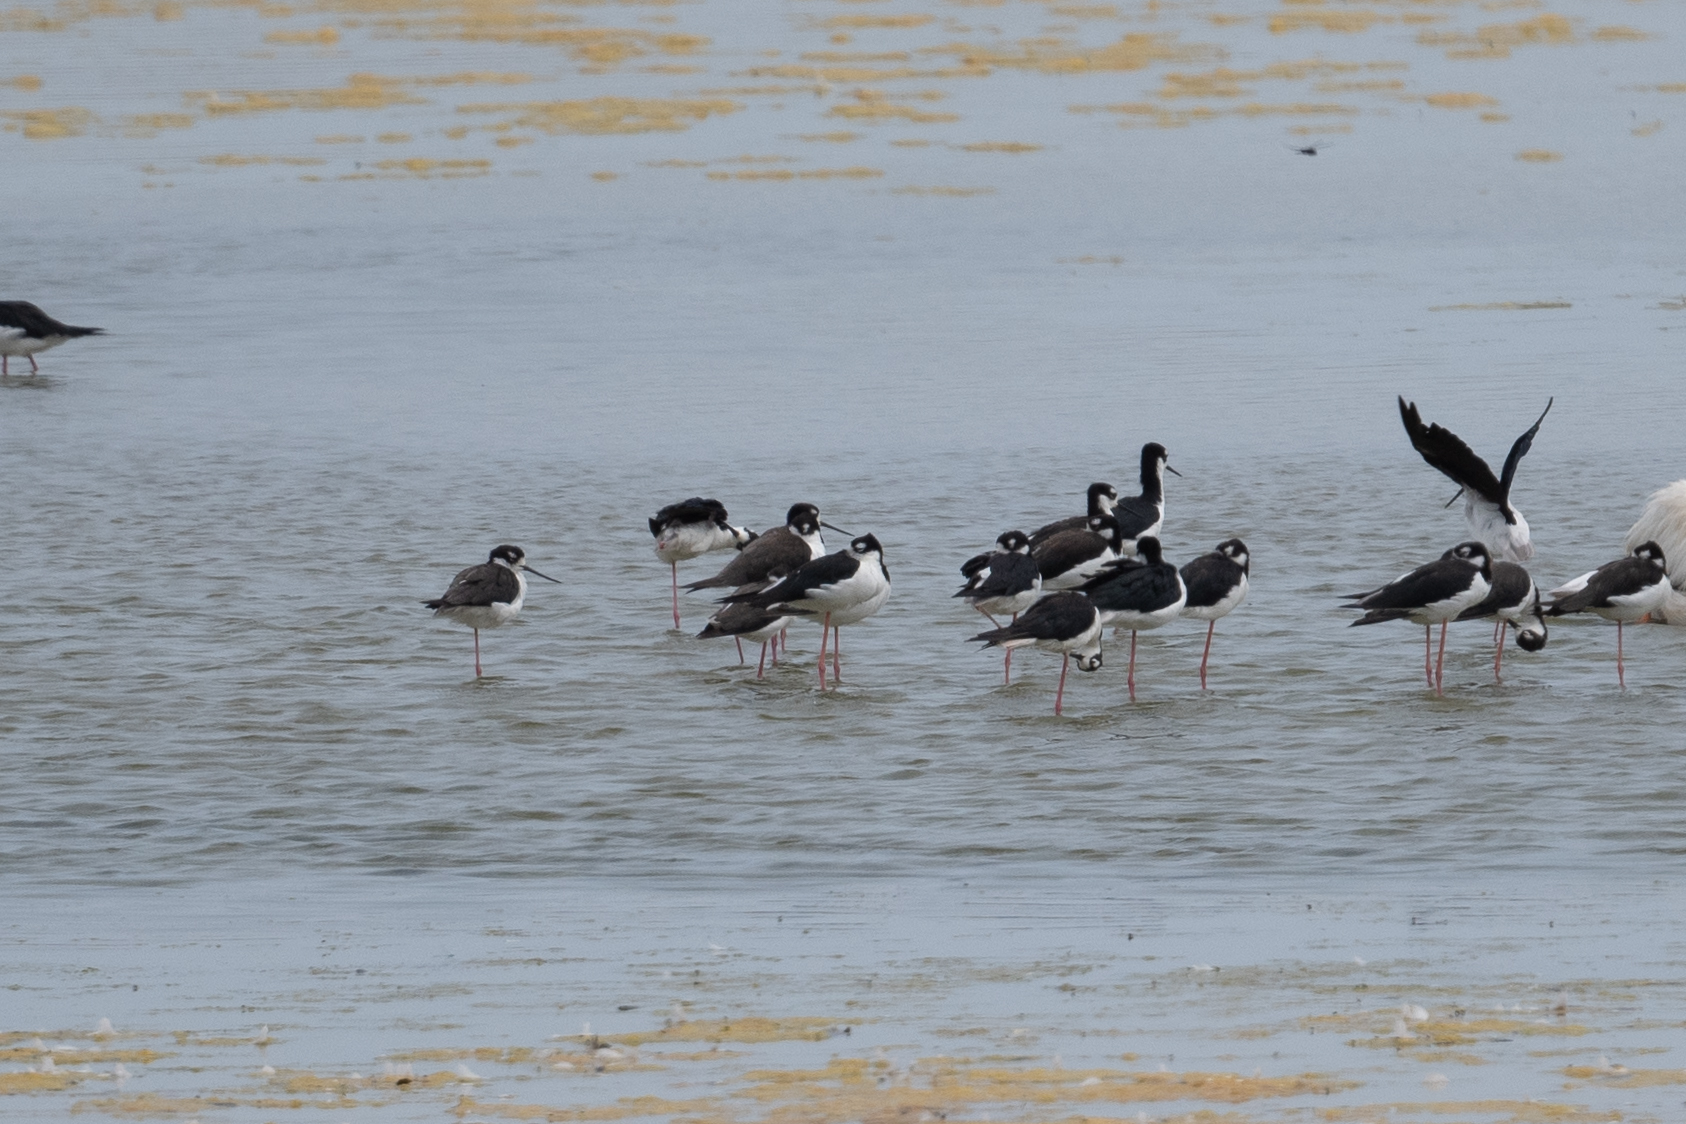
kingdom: Animalia
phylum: Chordata
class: Aves
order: Charadriiformes
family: Recurvirostridae
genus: Himantopus
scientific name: Himantopus mexicanus
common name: Black-necked stilt
